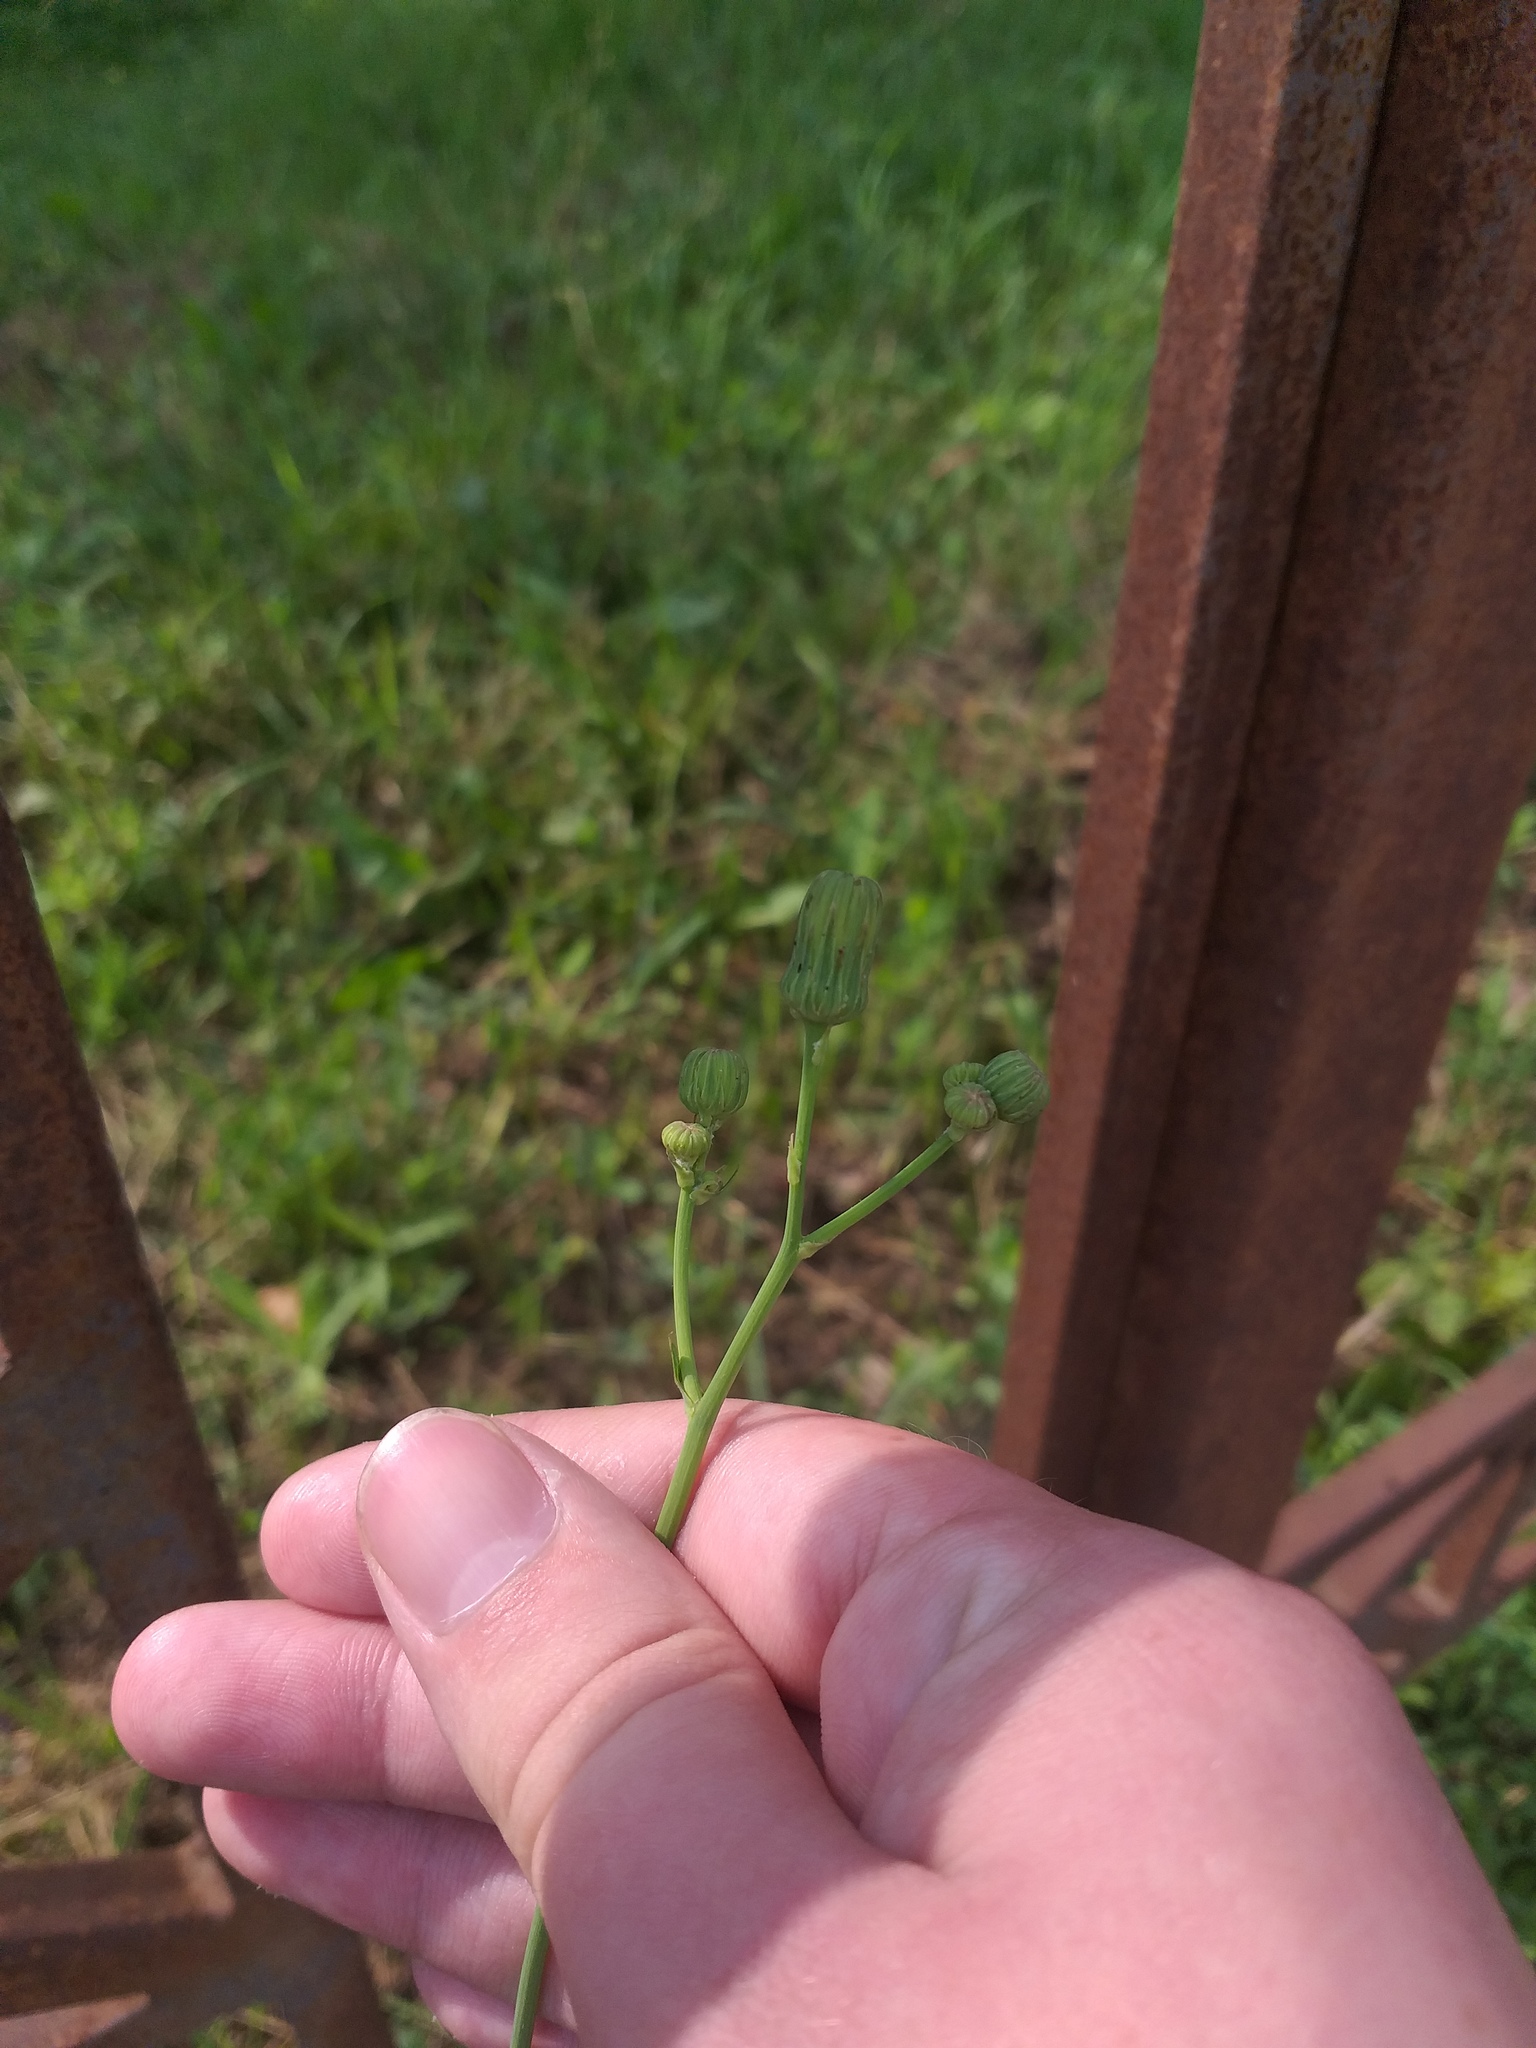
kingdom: Plantae
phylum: Tracheophyta
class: Magnoliopsida
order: Asterales
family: Asteraceae
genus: Sonchus
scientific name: Sonchus arvensis
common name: Perennial sow-thistle
